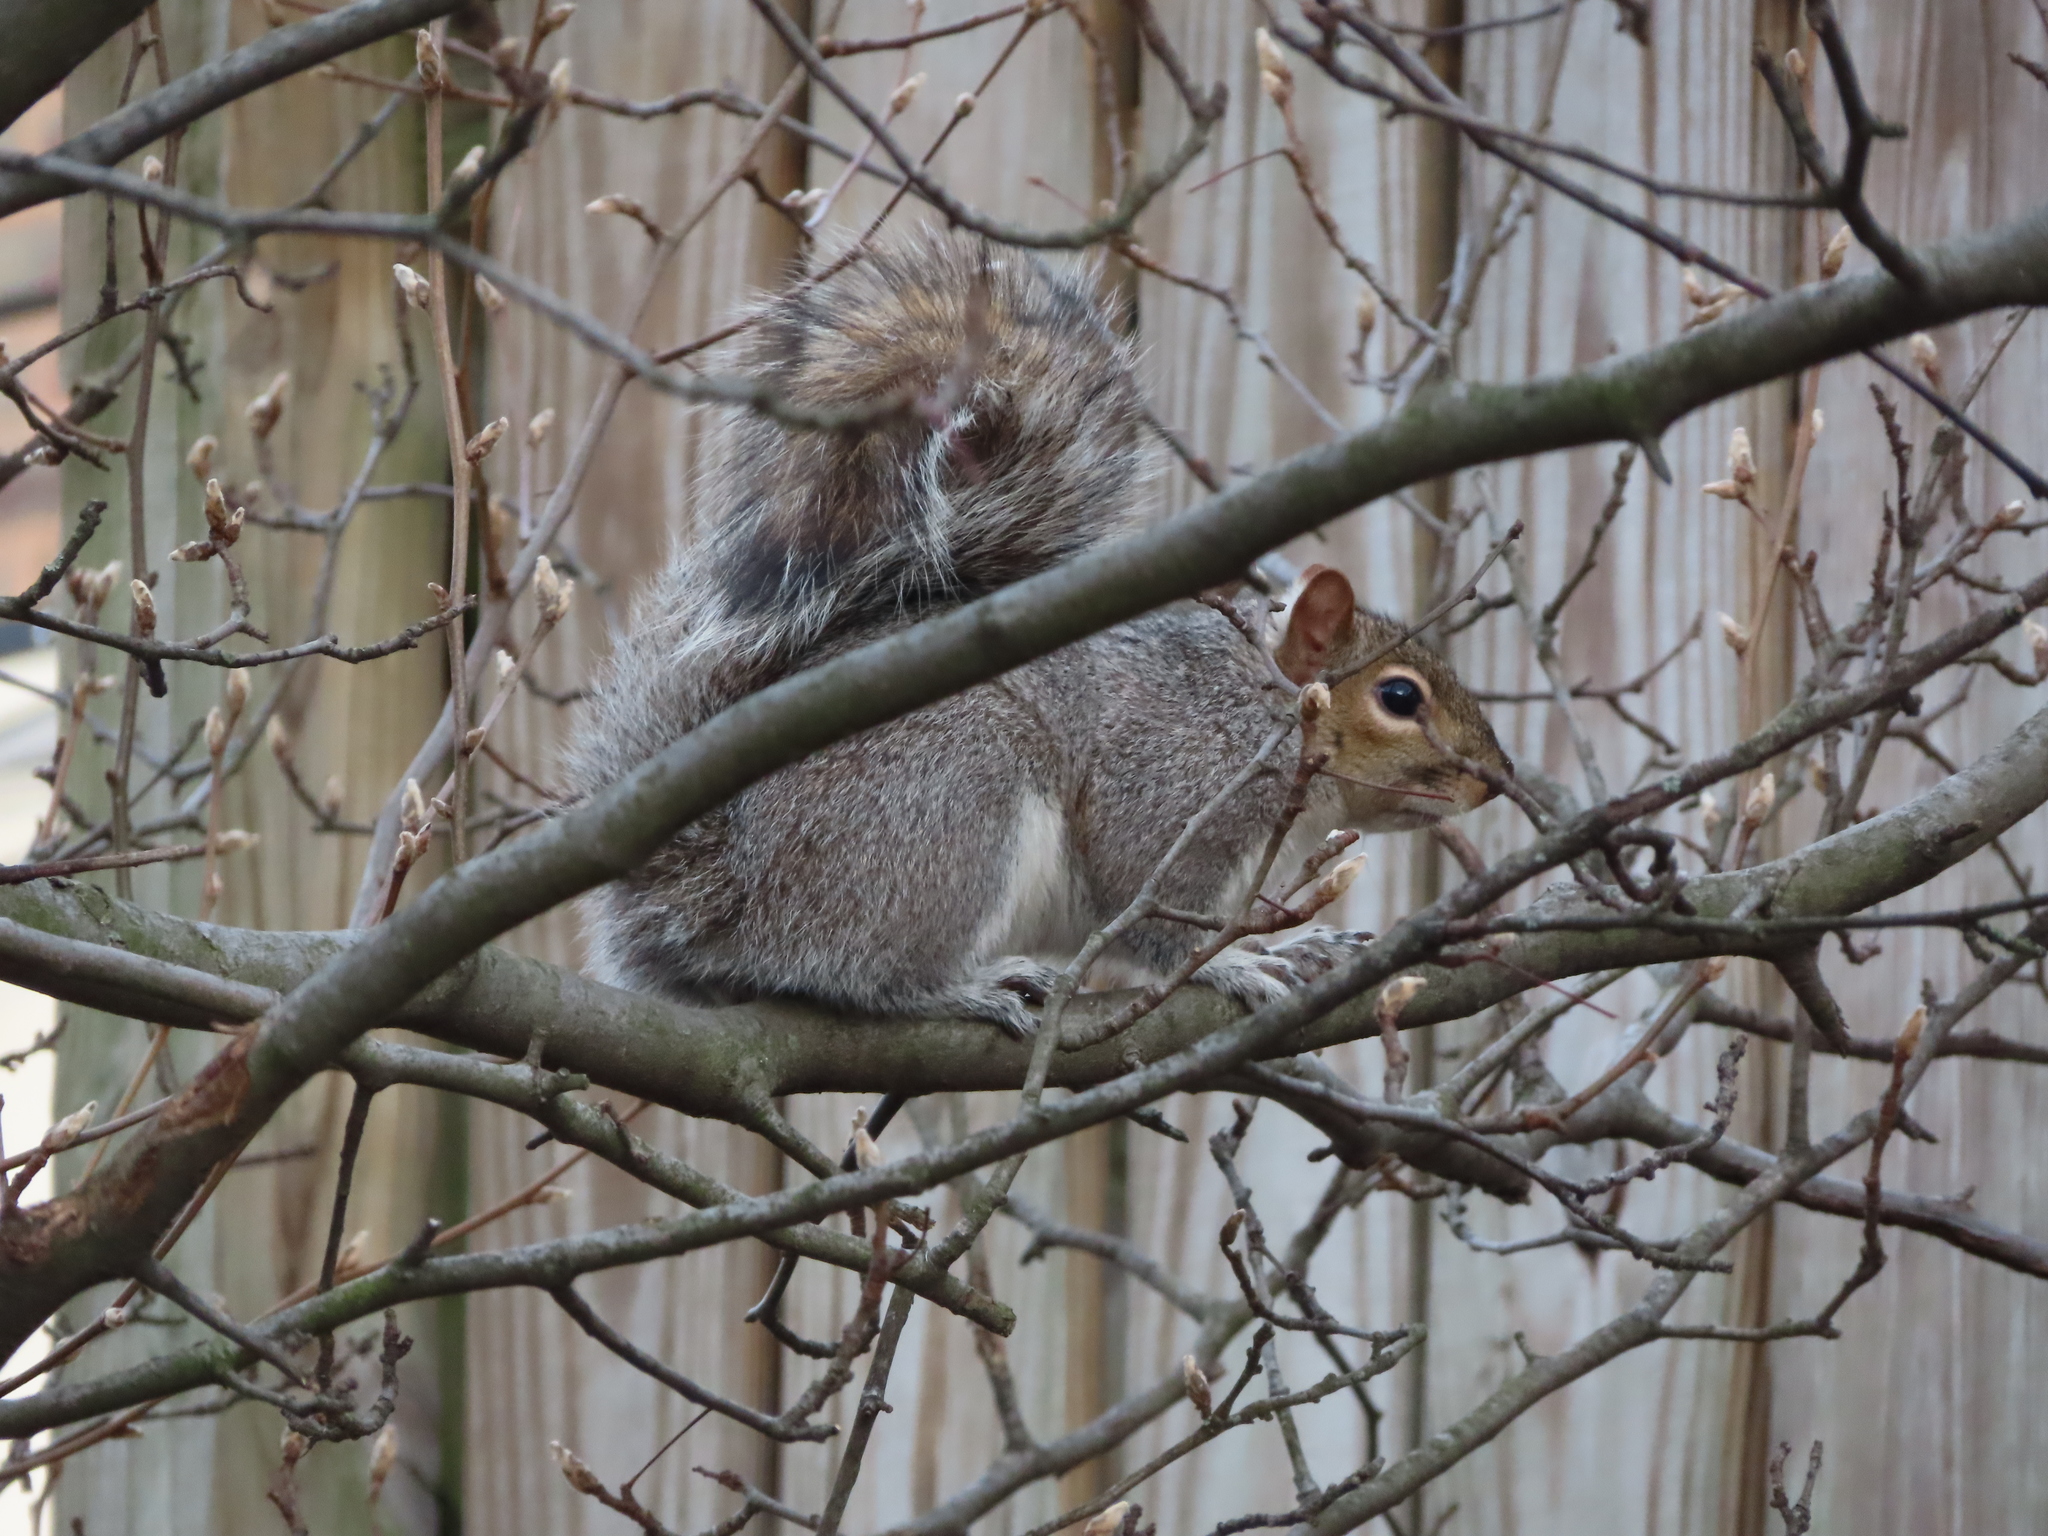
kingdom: Animalia
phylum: Chordata
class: Mammalia
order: Rodentia
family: Sciuridae
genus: Sciurus
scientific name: Sciurus carolinensis
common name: Eastern gray squirrel
